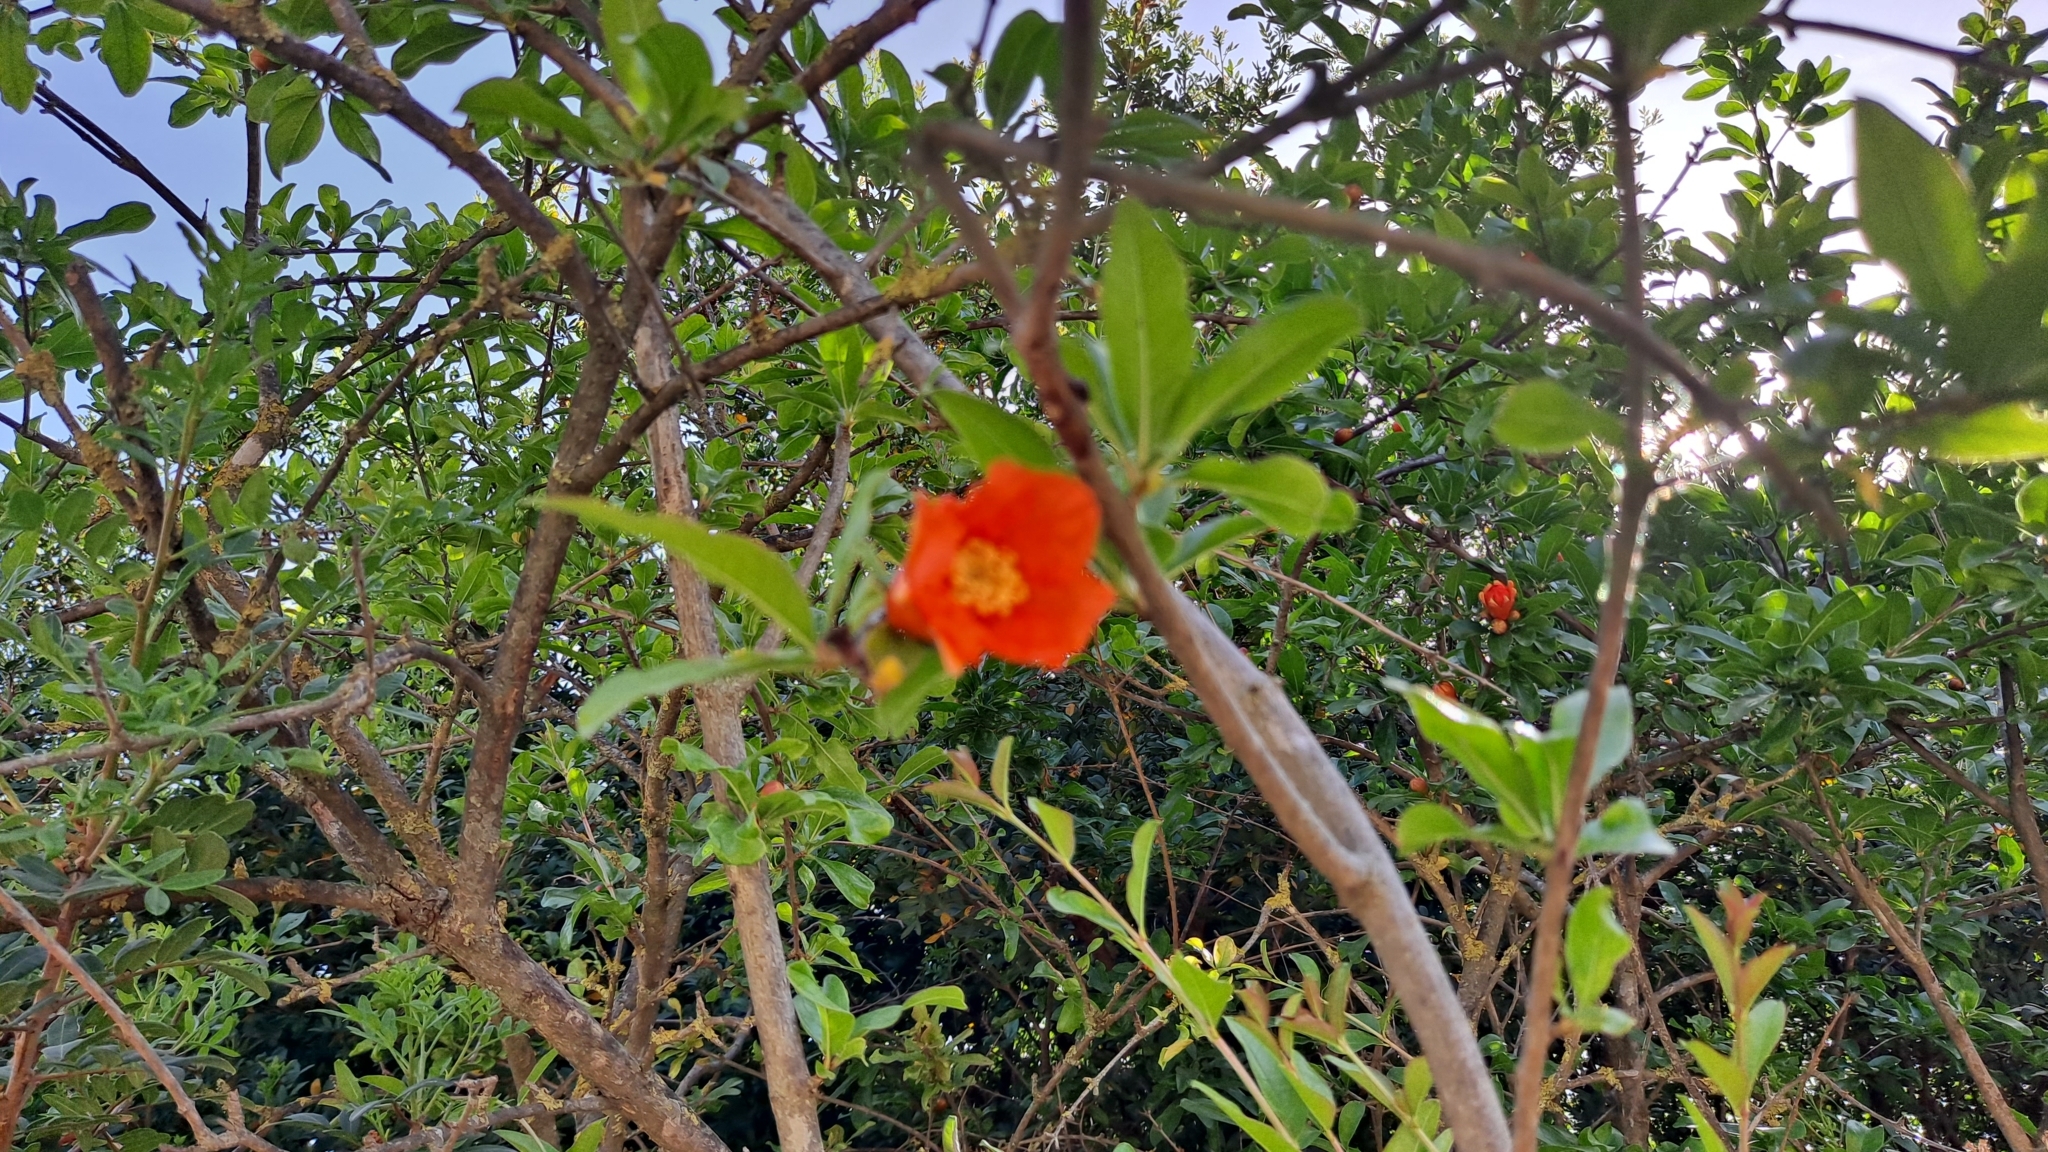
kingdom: Plantae
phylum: Tracheophyta
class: Magnoliopsida
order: Myrtales
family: Lythraceae
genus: Punica
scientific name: Punica granatum
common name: Pomegranate
